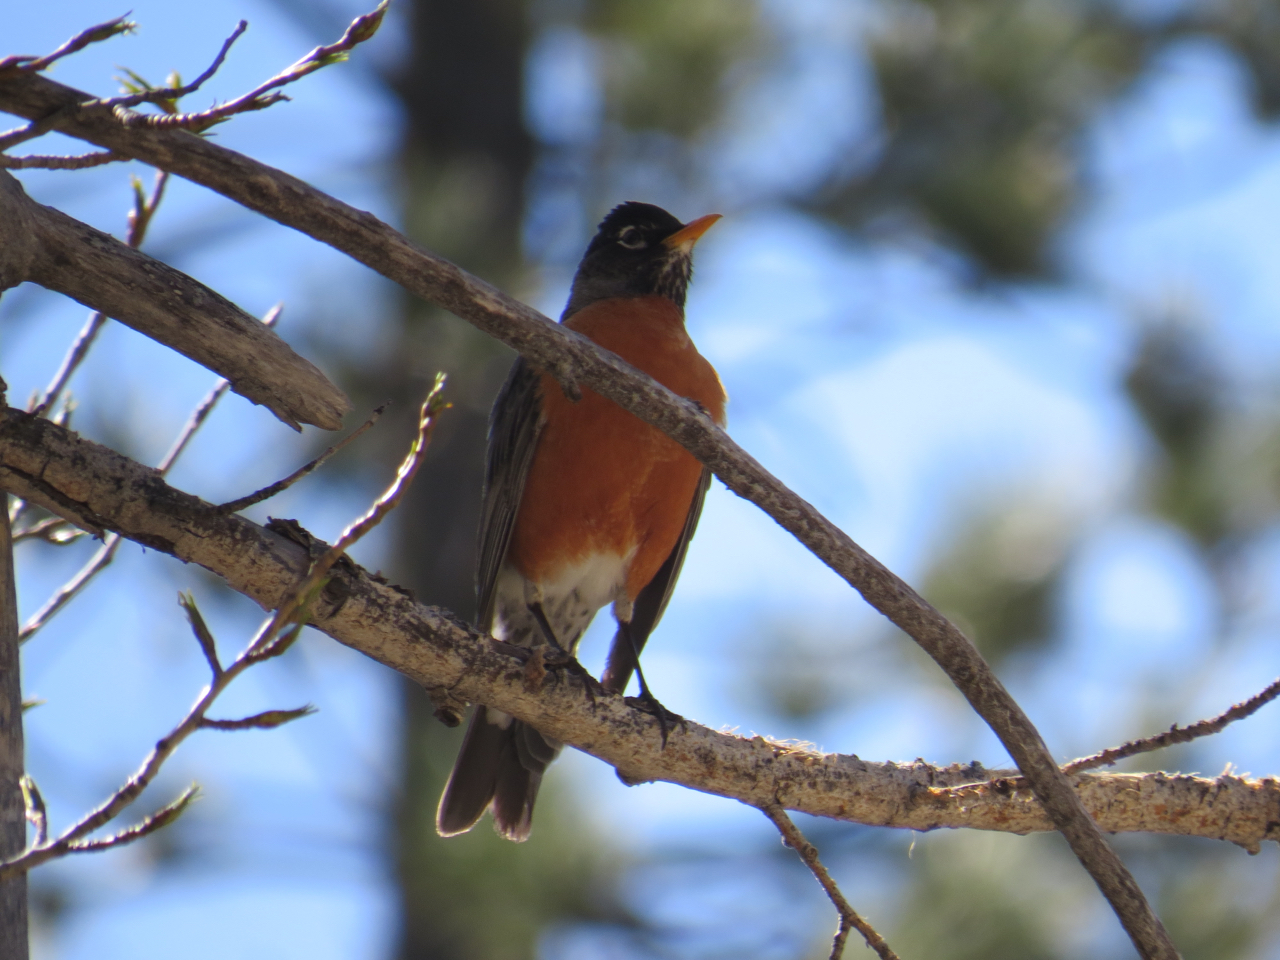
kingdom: Animalia
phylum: Chordata
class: Aves
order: Passeriformes
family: Turdidae
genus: Turdus
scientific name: Turdus migratorius
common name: American robin
